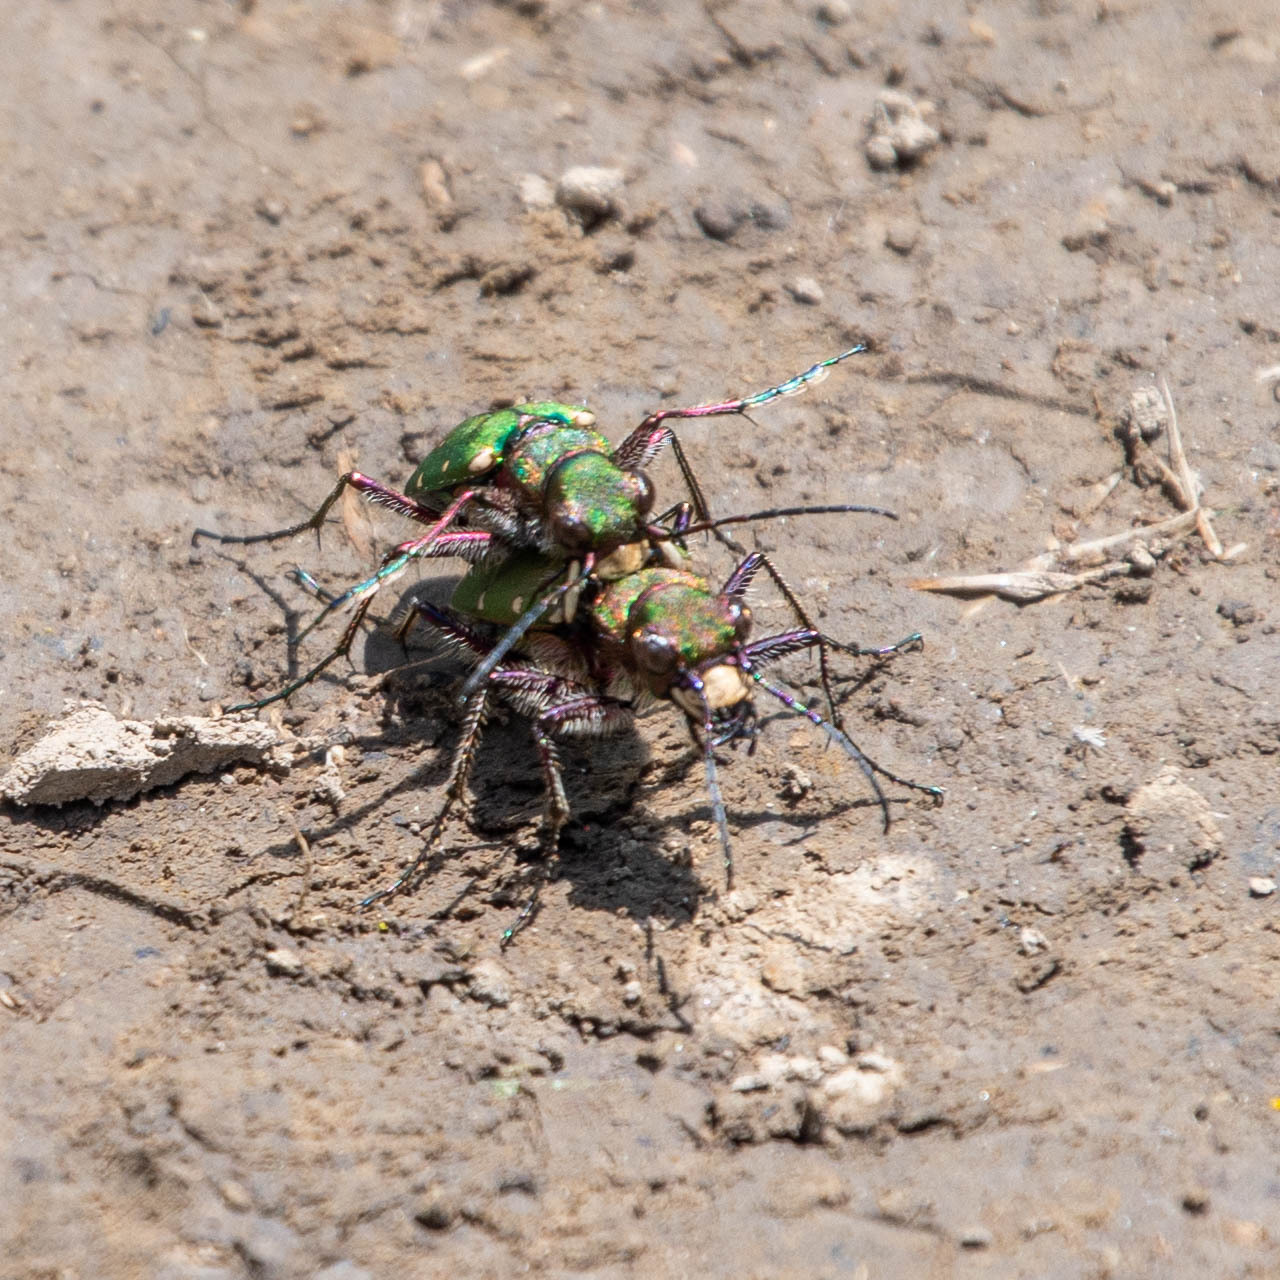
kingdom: Animalia
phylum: Arthropoda
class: Insecta
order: Coleoptera
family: Carabidae
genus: Cicindela
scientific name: Cicindela campestris
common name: Common tiger beetle
